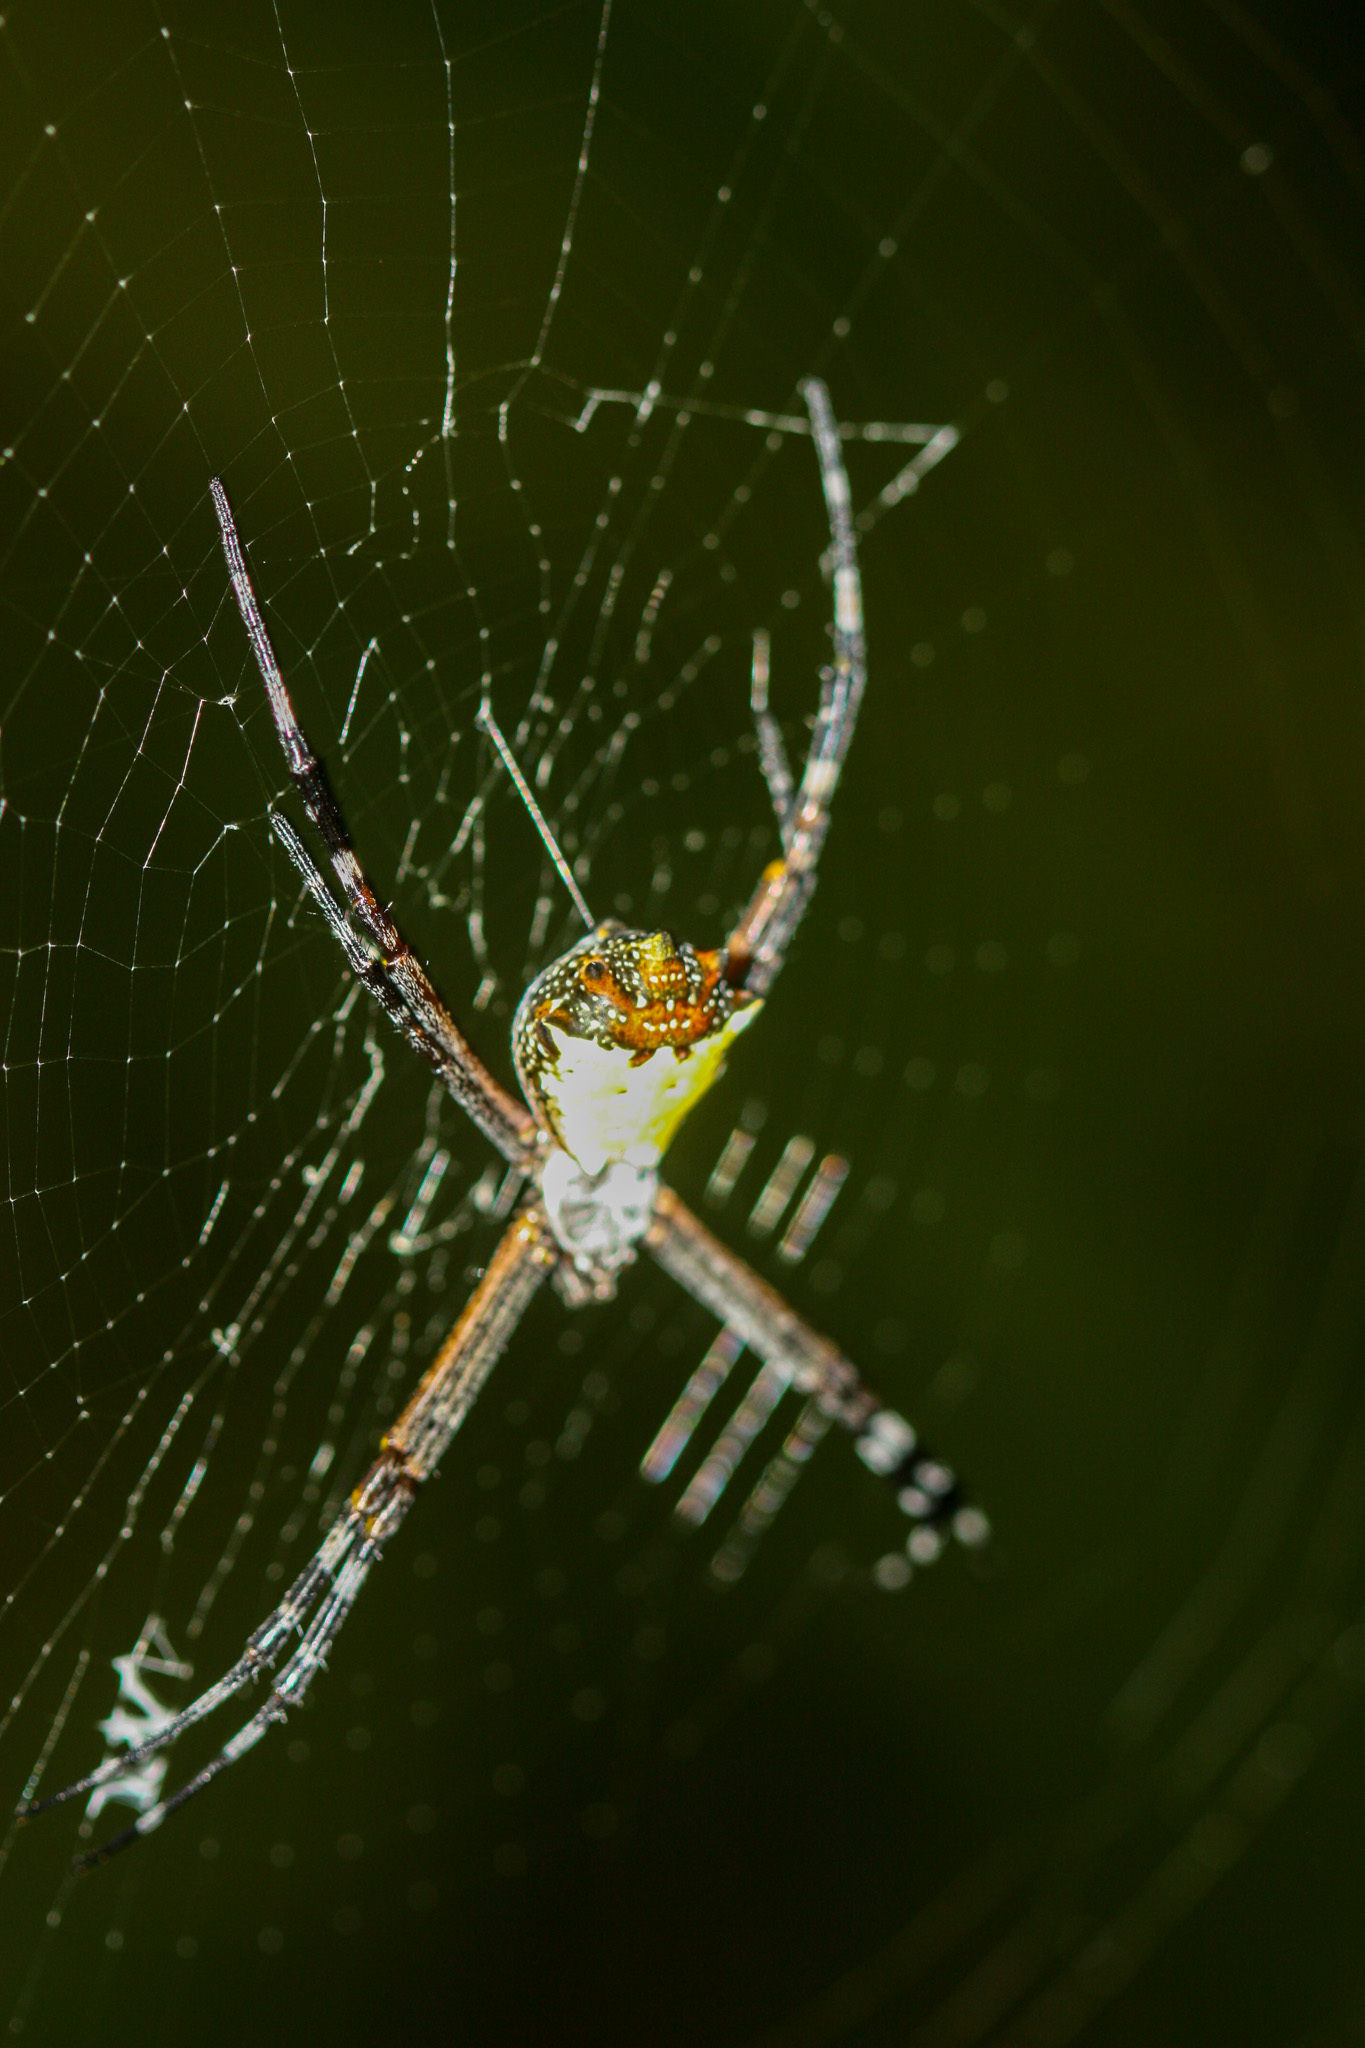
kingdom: Animalia
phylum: Arthropoda
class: Arachnida
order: Araneae
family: Araneidae
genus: Argiope
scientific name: Argiope submaronica
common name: Orb weavers
